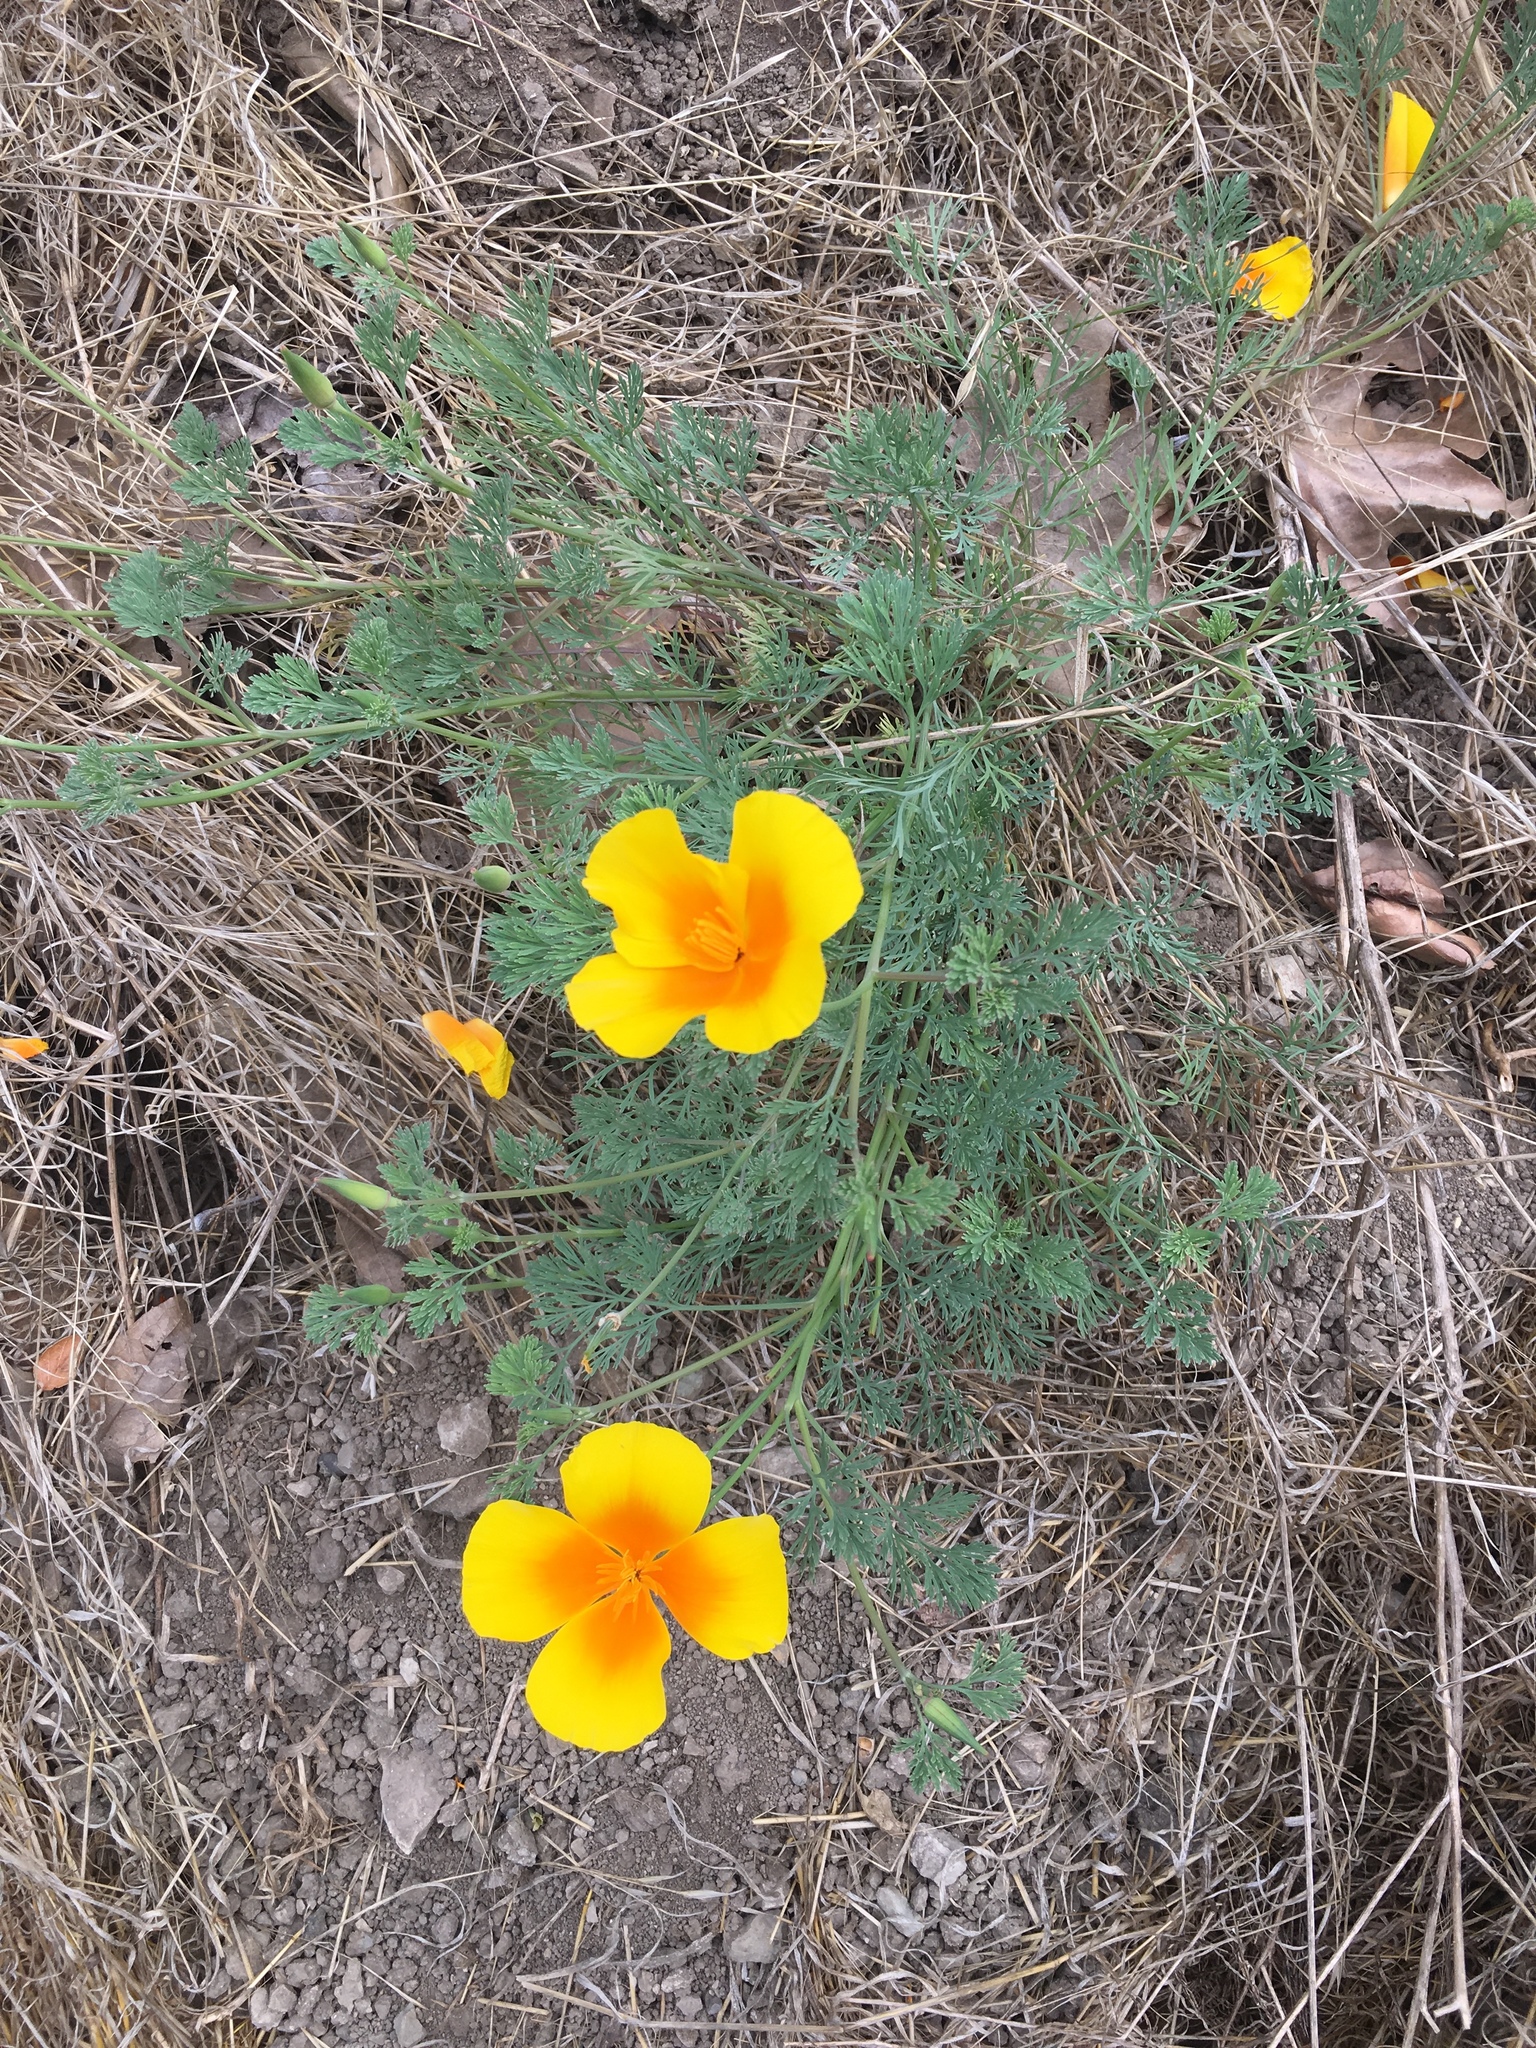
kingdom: Plantae
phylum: Tracheophyta
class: Magnoliopsida
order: Ranunculales
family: Papaveraceae
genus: Eschscholzia
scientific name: Eschscholzia californica
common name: California poppy
